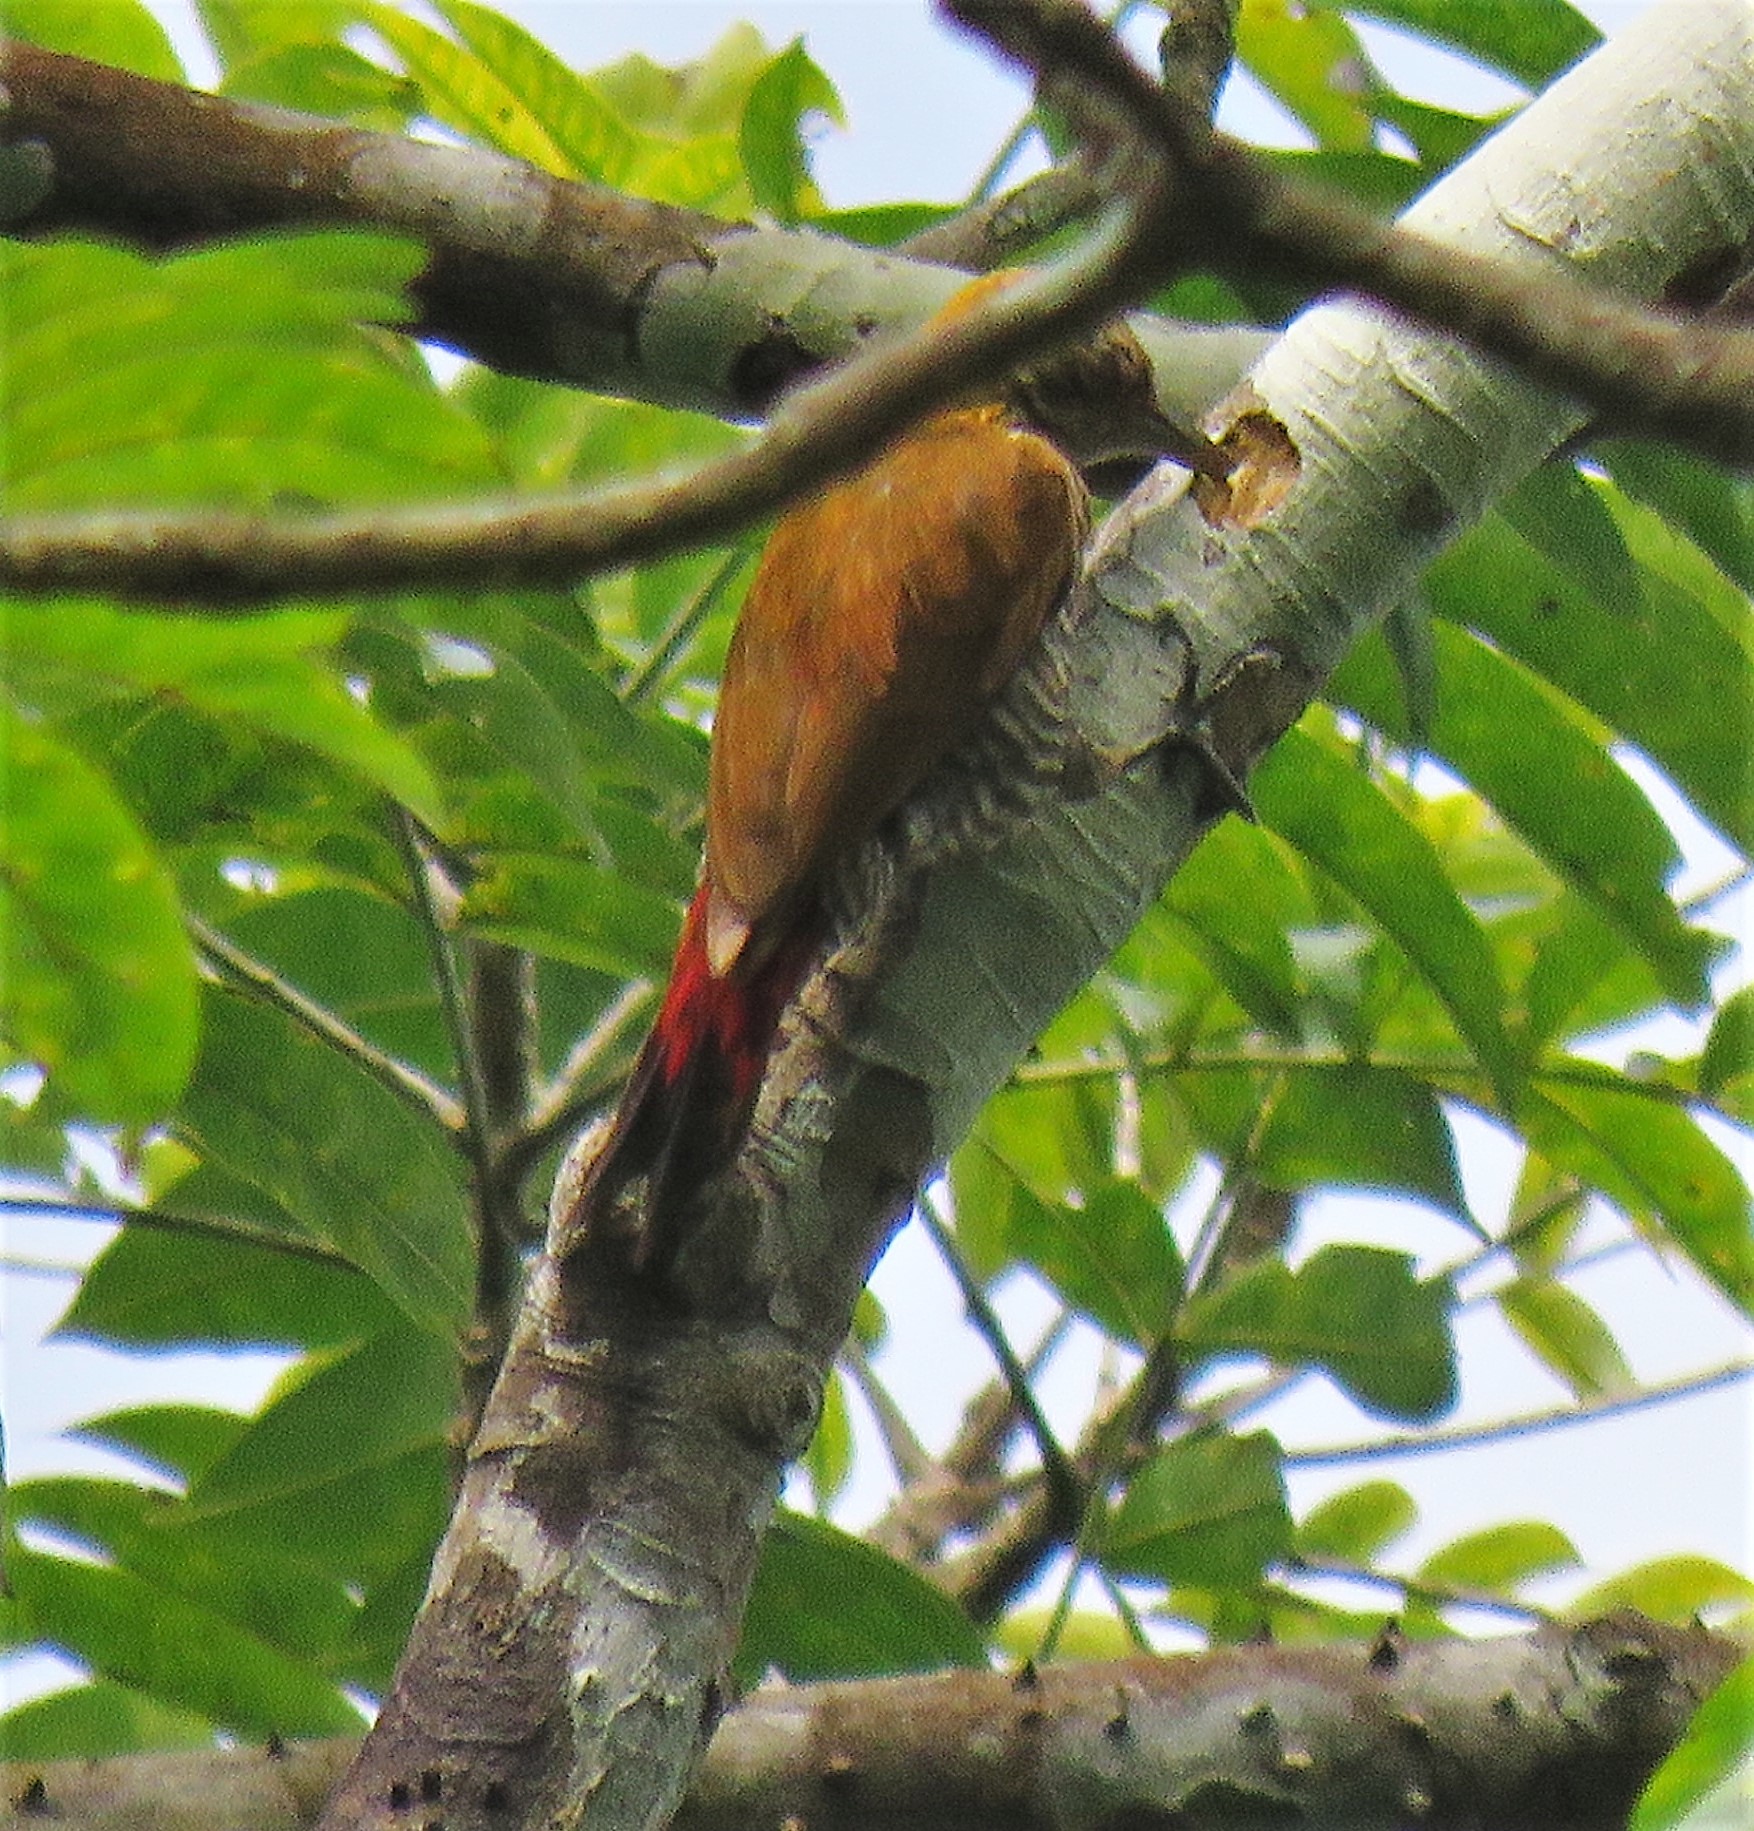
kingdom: Animalia
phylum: Chordata
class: Aves
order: Piciformes
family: Picidae
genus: Veniliornis
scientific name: Veniliornis kirkii
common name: Red-rumped woodpecker
